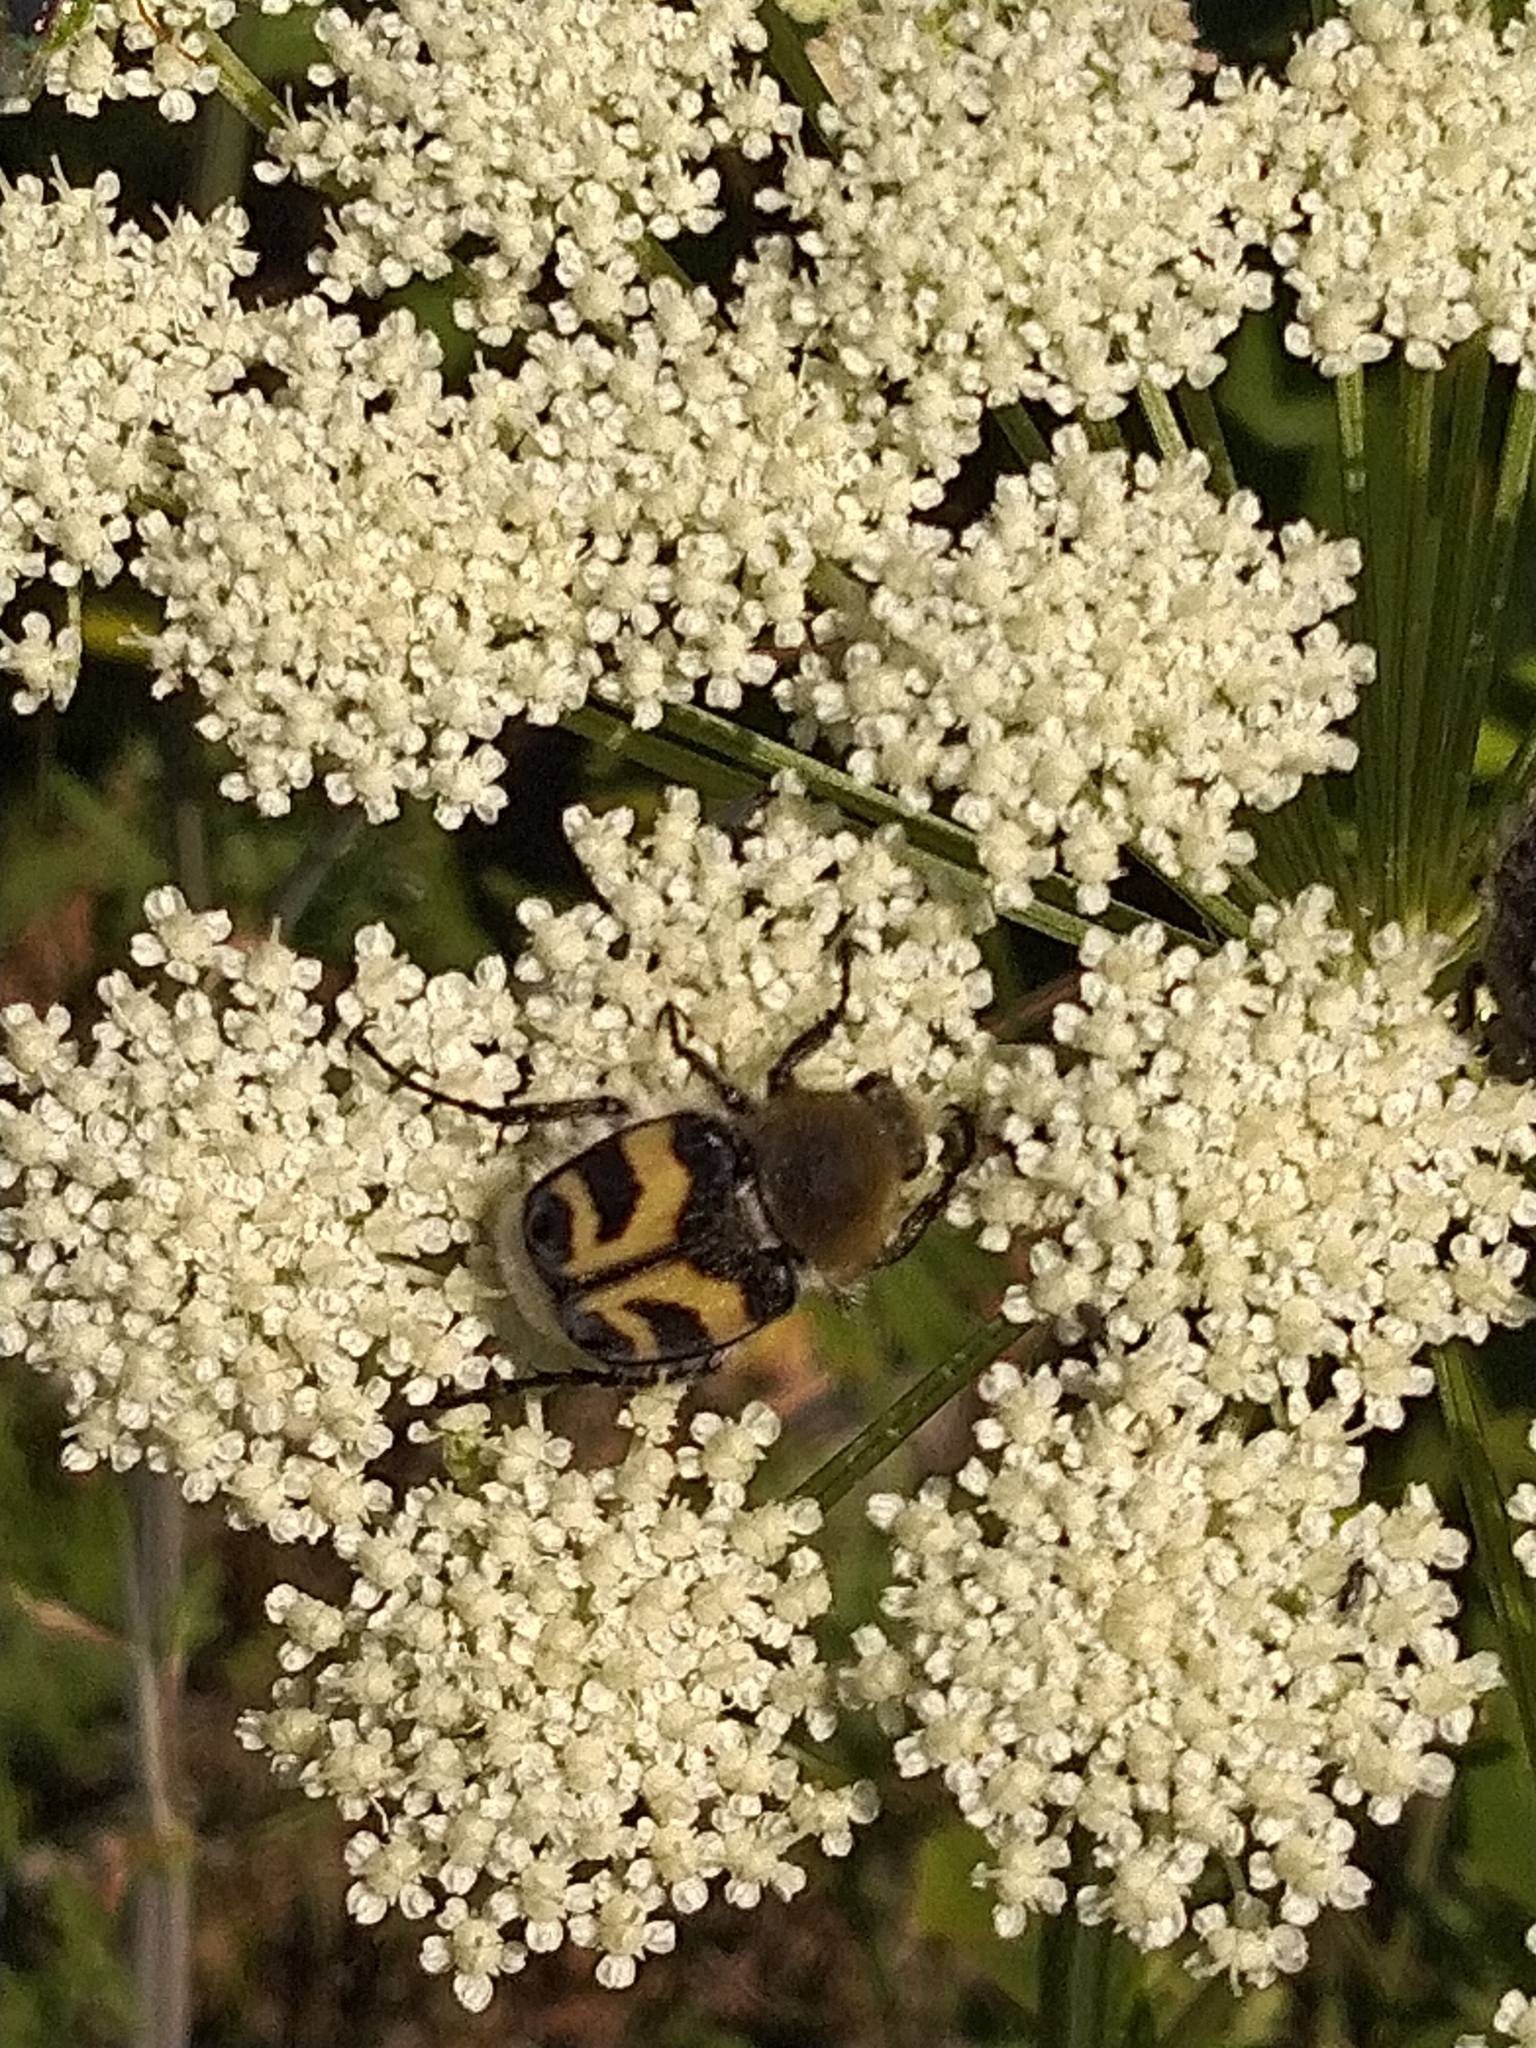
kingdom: Animalia
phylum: Arthropoda
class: Insecta
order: Coleoptera
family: Scarabaeidae
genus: Trichius
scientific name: Trichius fasciatus
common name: Bee beetle
